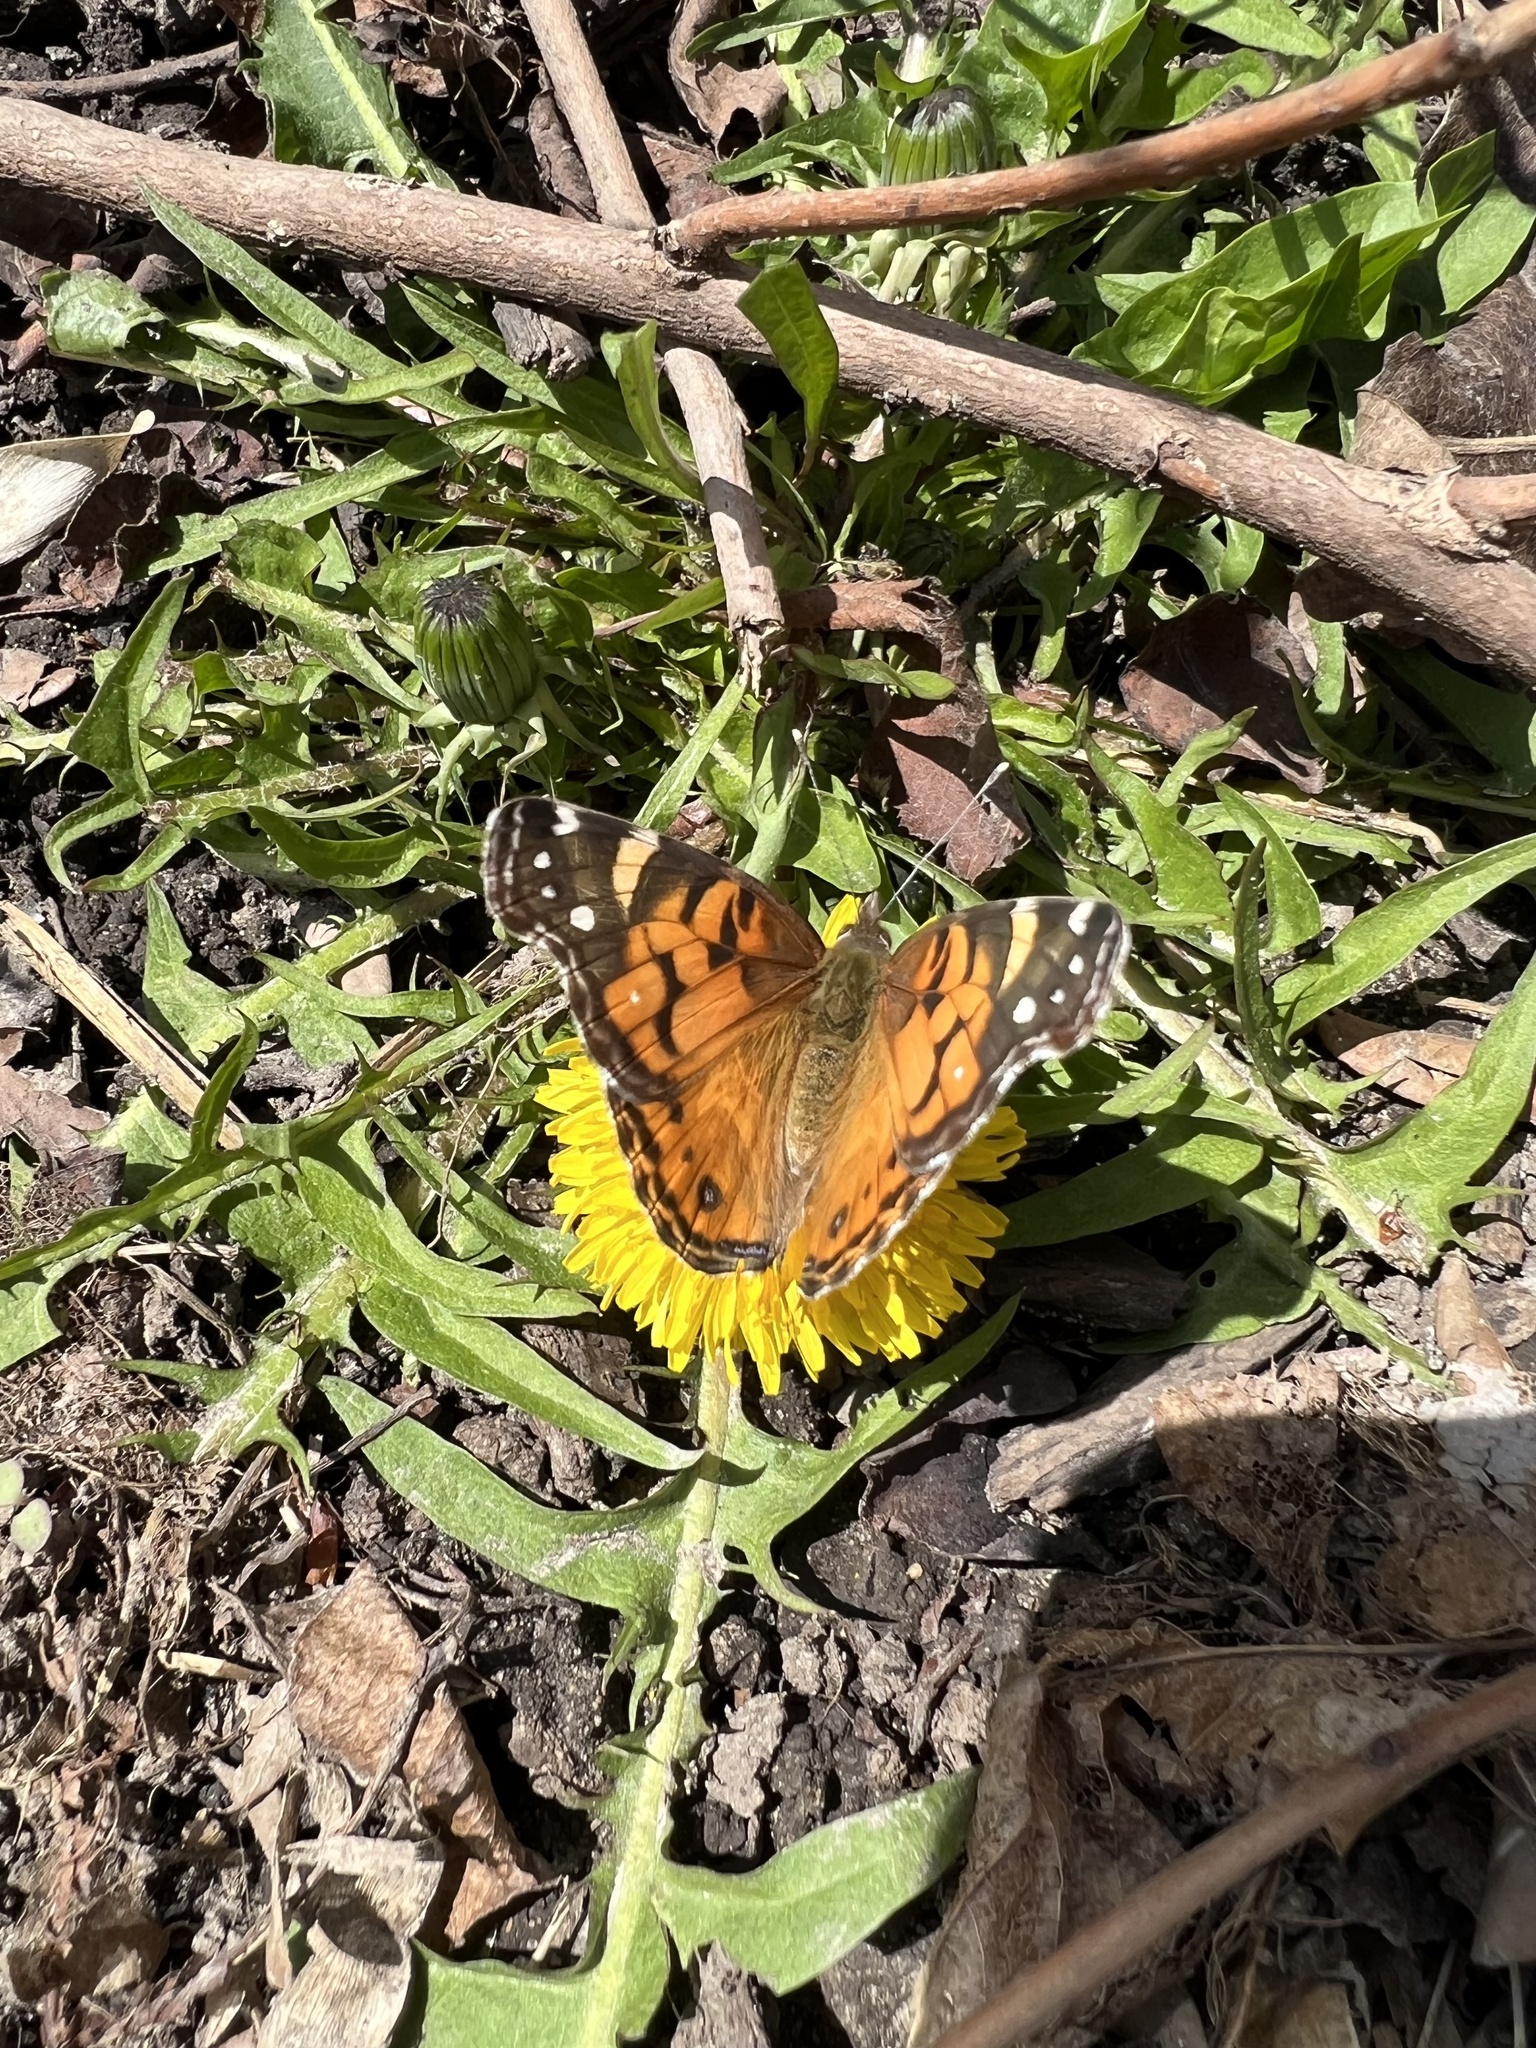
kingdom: Animalia
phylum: Arthropoda
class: Insecta
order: Lepidoptera
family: Nymphalidae
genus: Vanessa
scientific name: Vanessa virginiensis
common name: American lady
